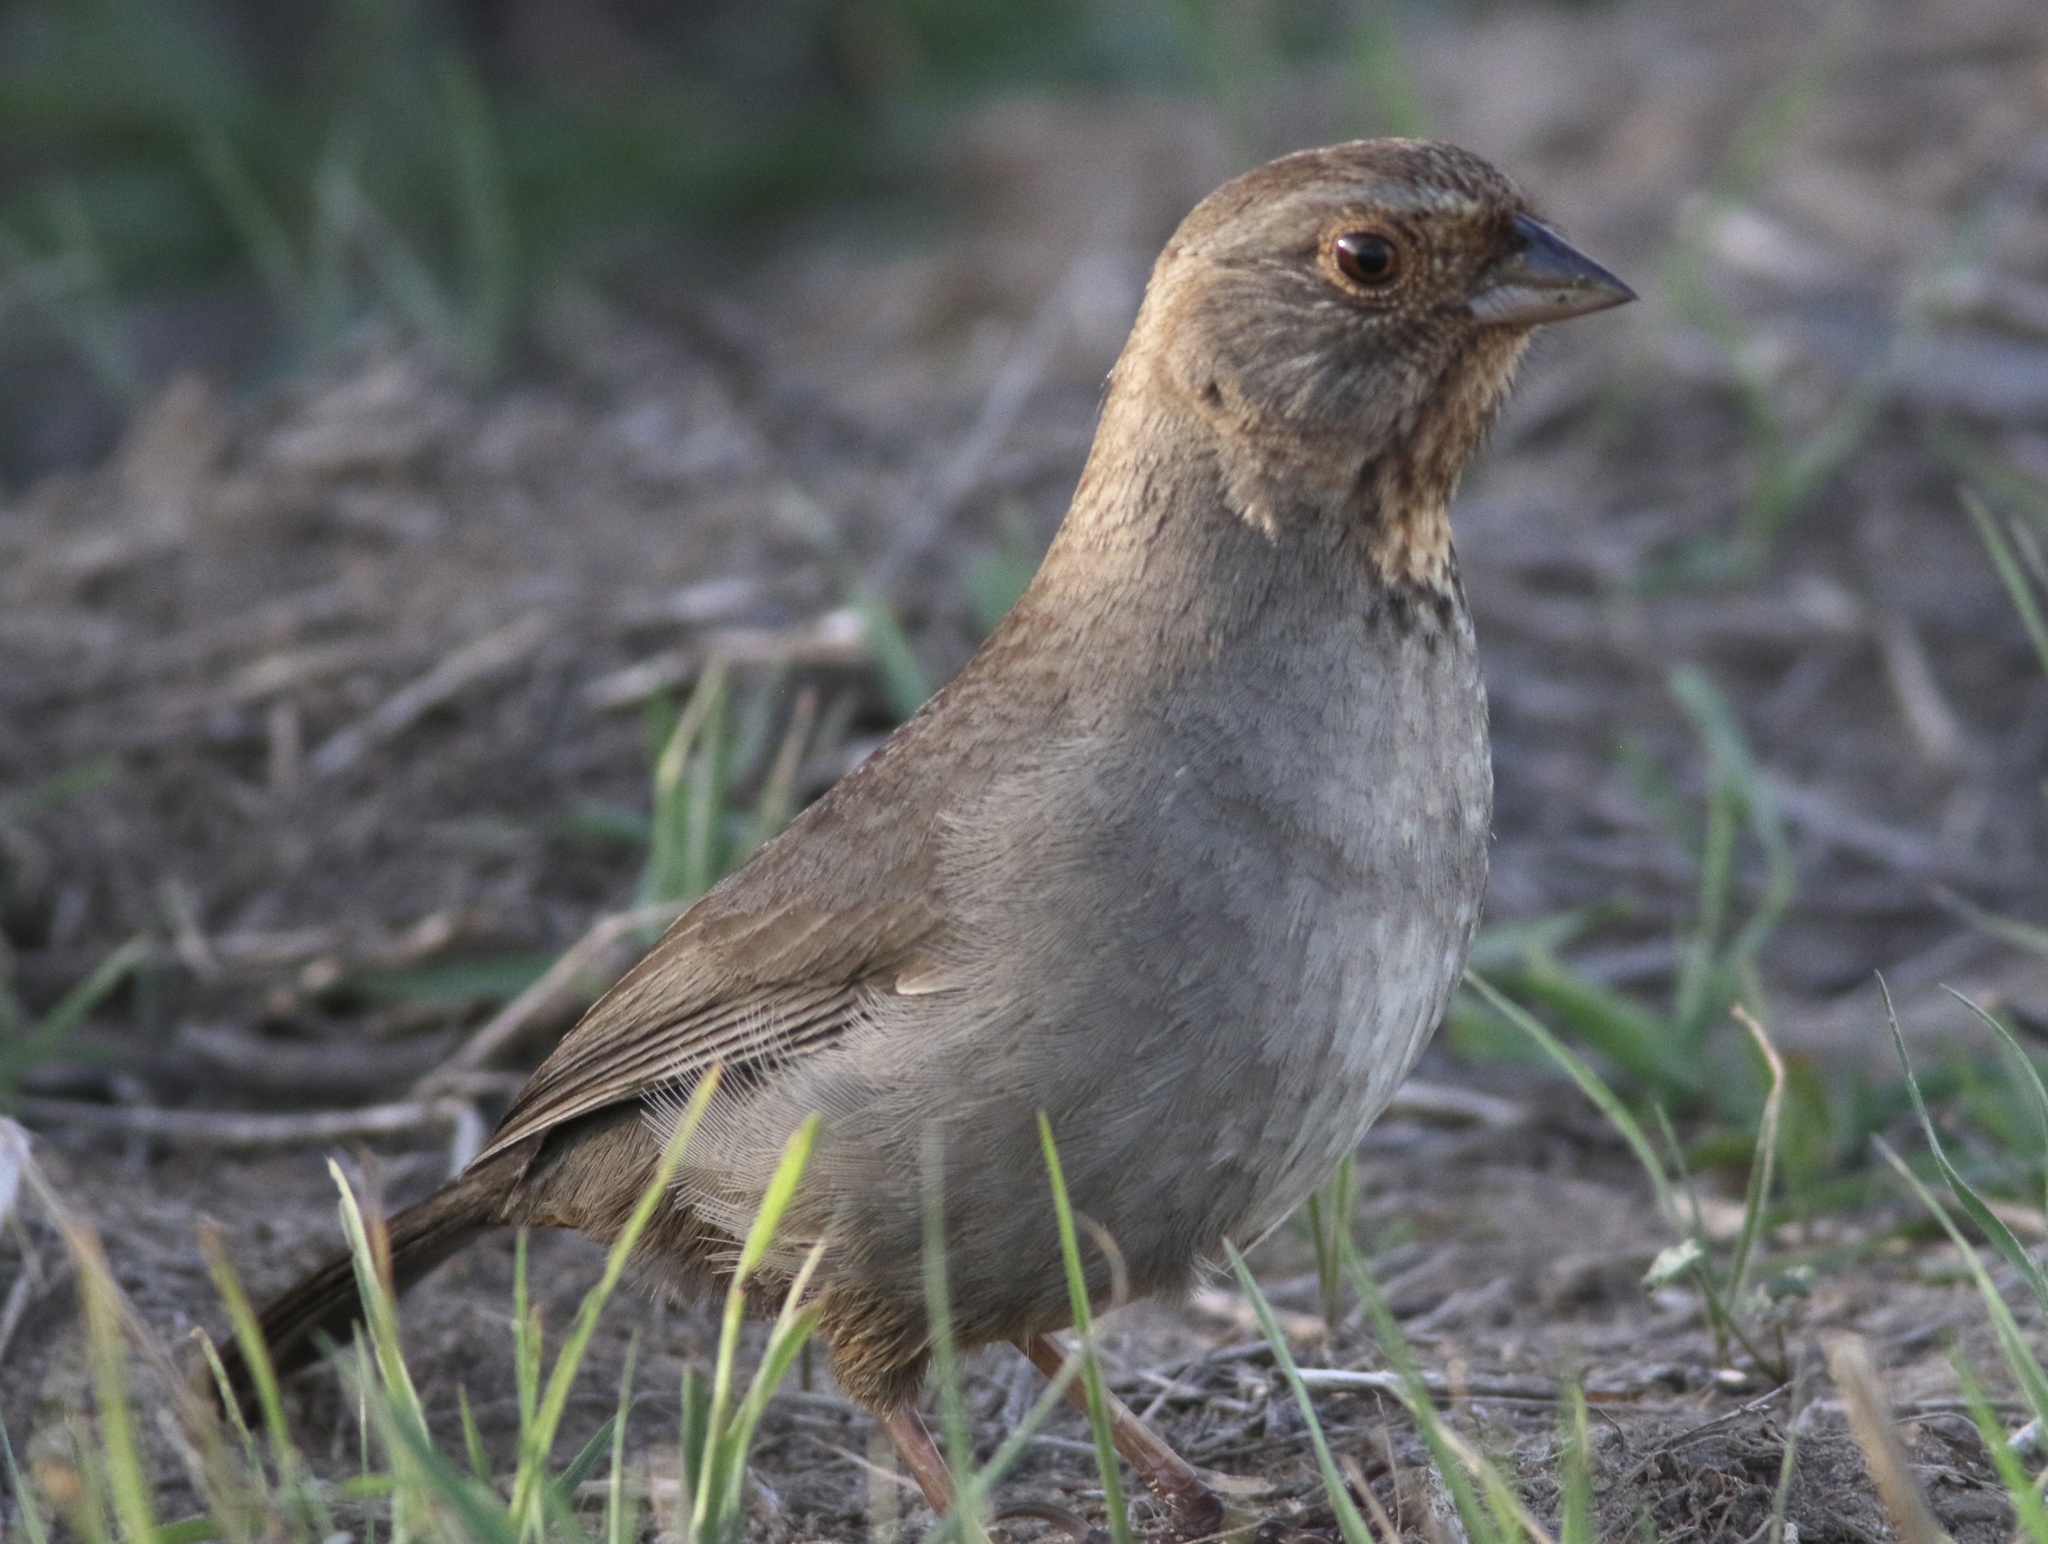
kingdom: Animalia
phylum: Chordata
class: Aves
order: Passeriformes
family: Passerellidae
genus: Melozone
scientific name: Melozone crissalis
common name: California towhee
